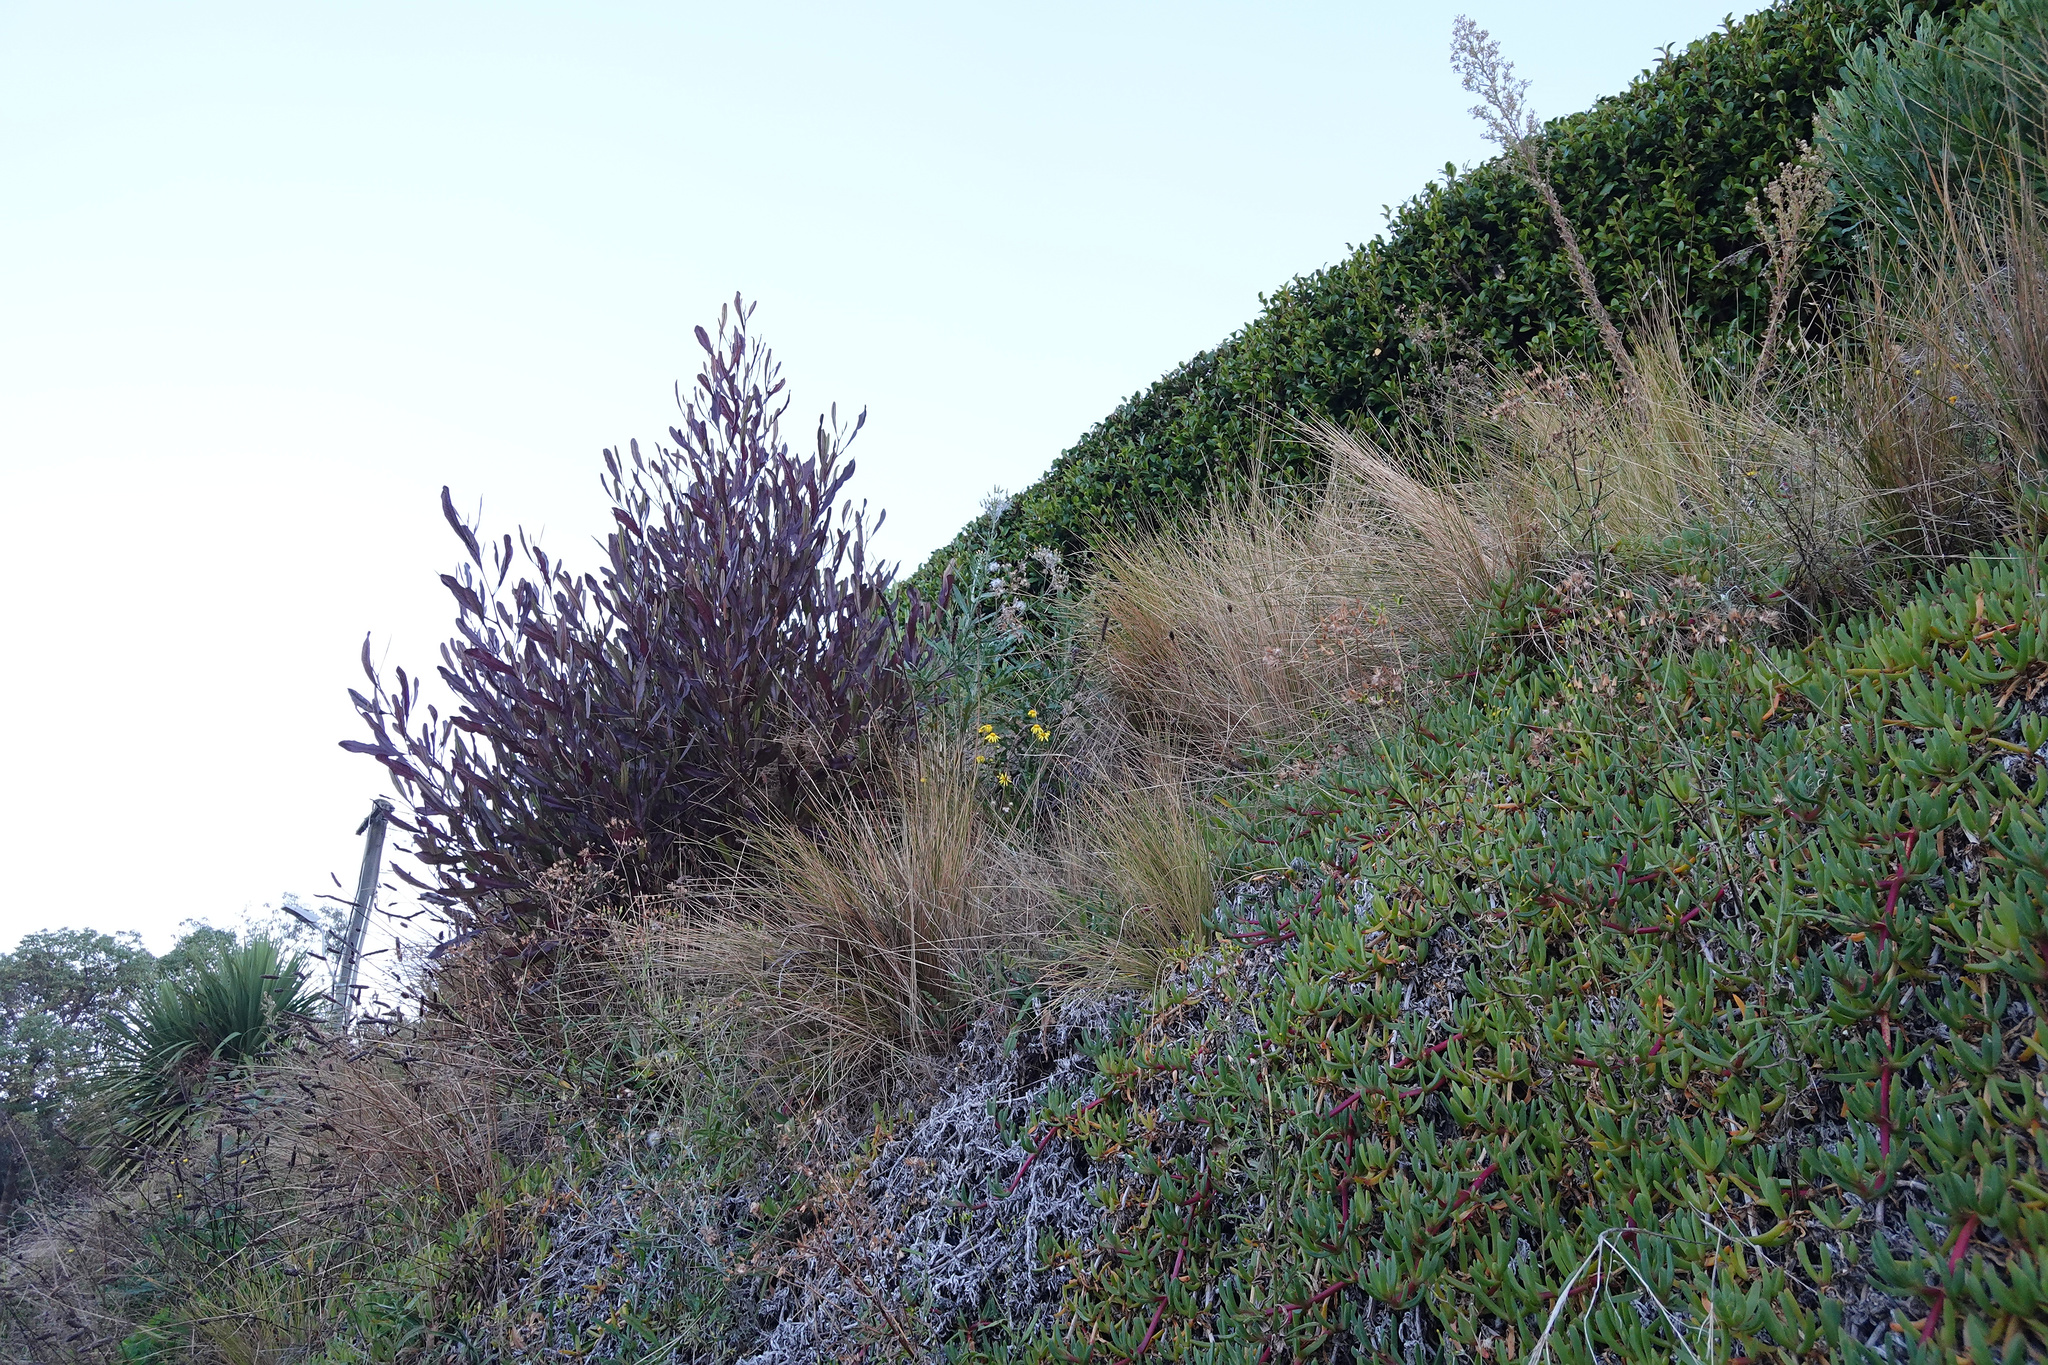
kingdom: Plantae
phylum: Tracheophyta
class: Magnoliopsida
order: Asterales
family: Asteraceae
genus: Senecio
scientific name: Senecio skirrhodon
